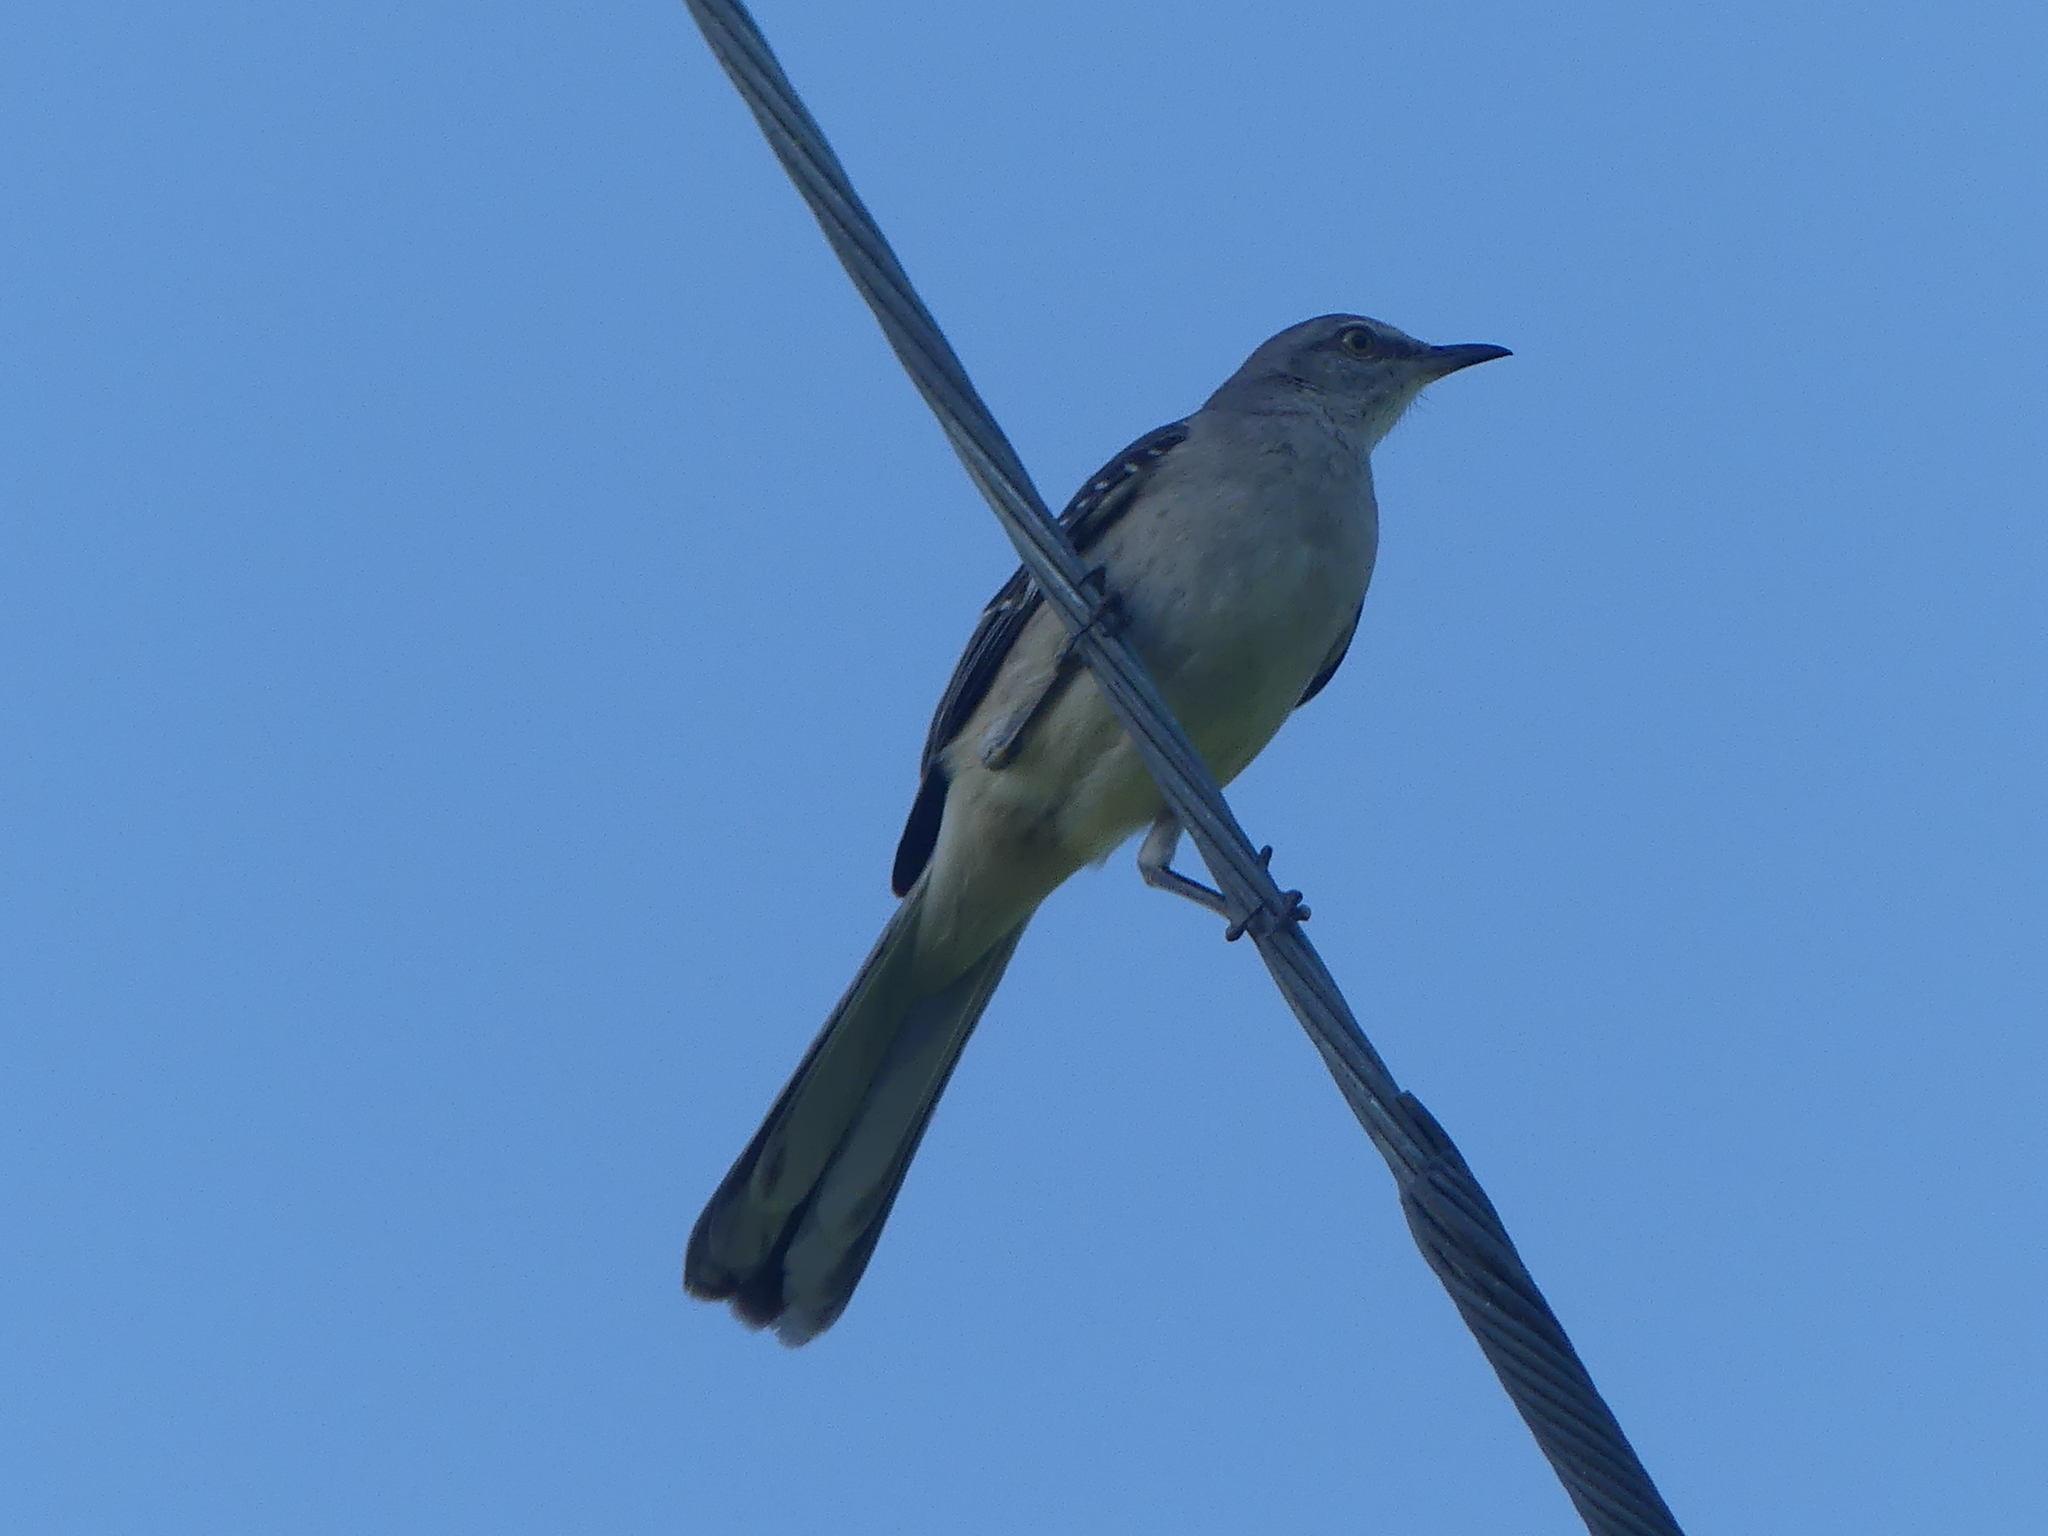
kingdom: Animalia
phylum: Chordata
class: Aves
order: Passeriformes
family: Mimidae
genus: Mimus
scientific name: Mimus polyglottos
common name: Northern mockingbird
